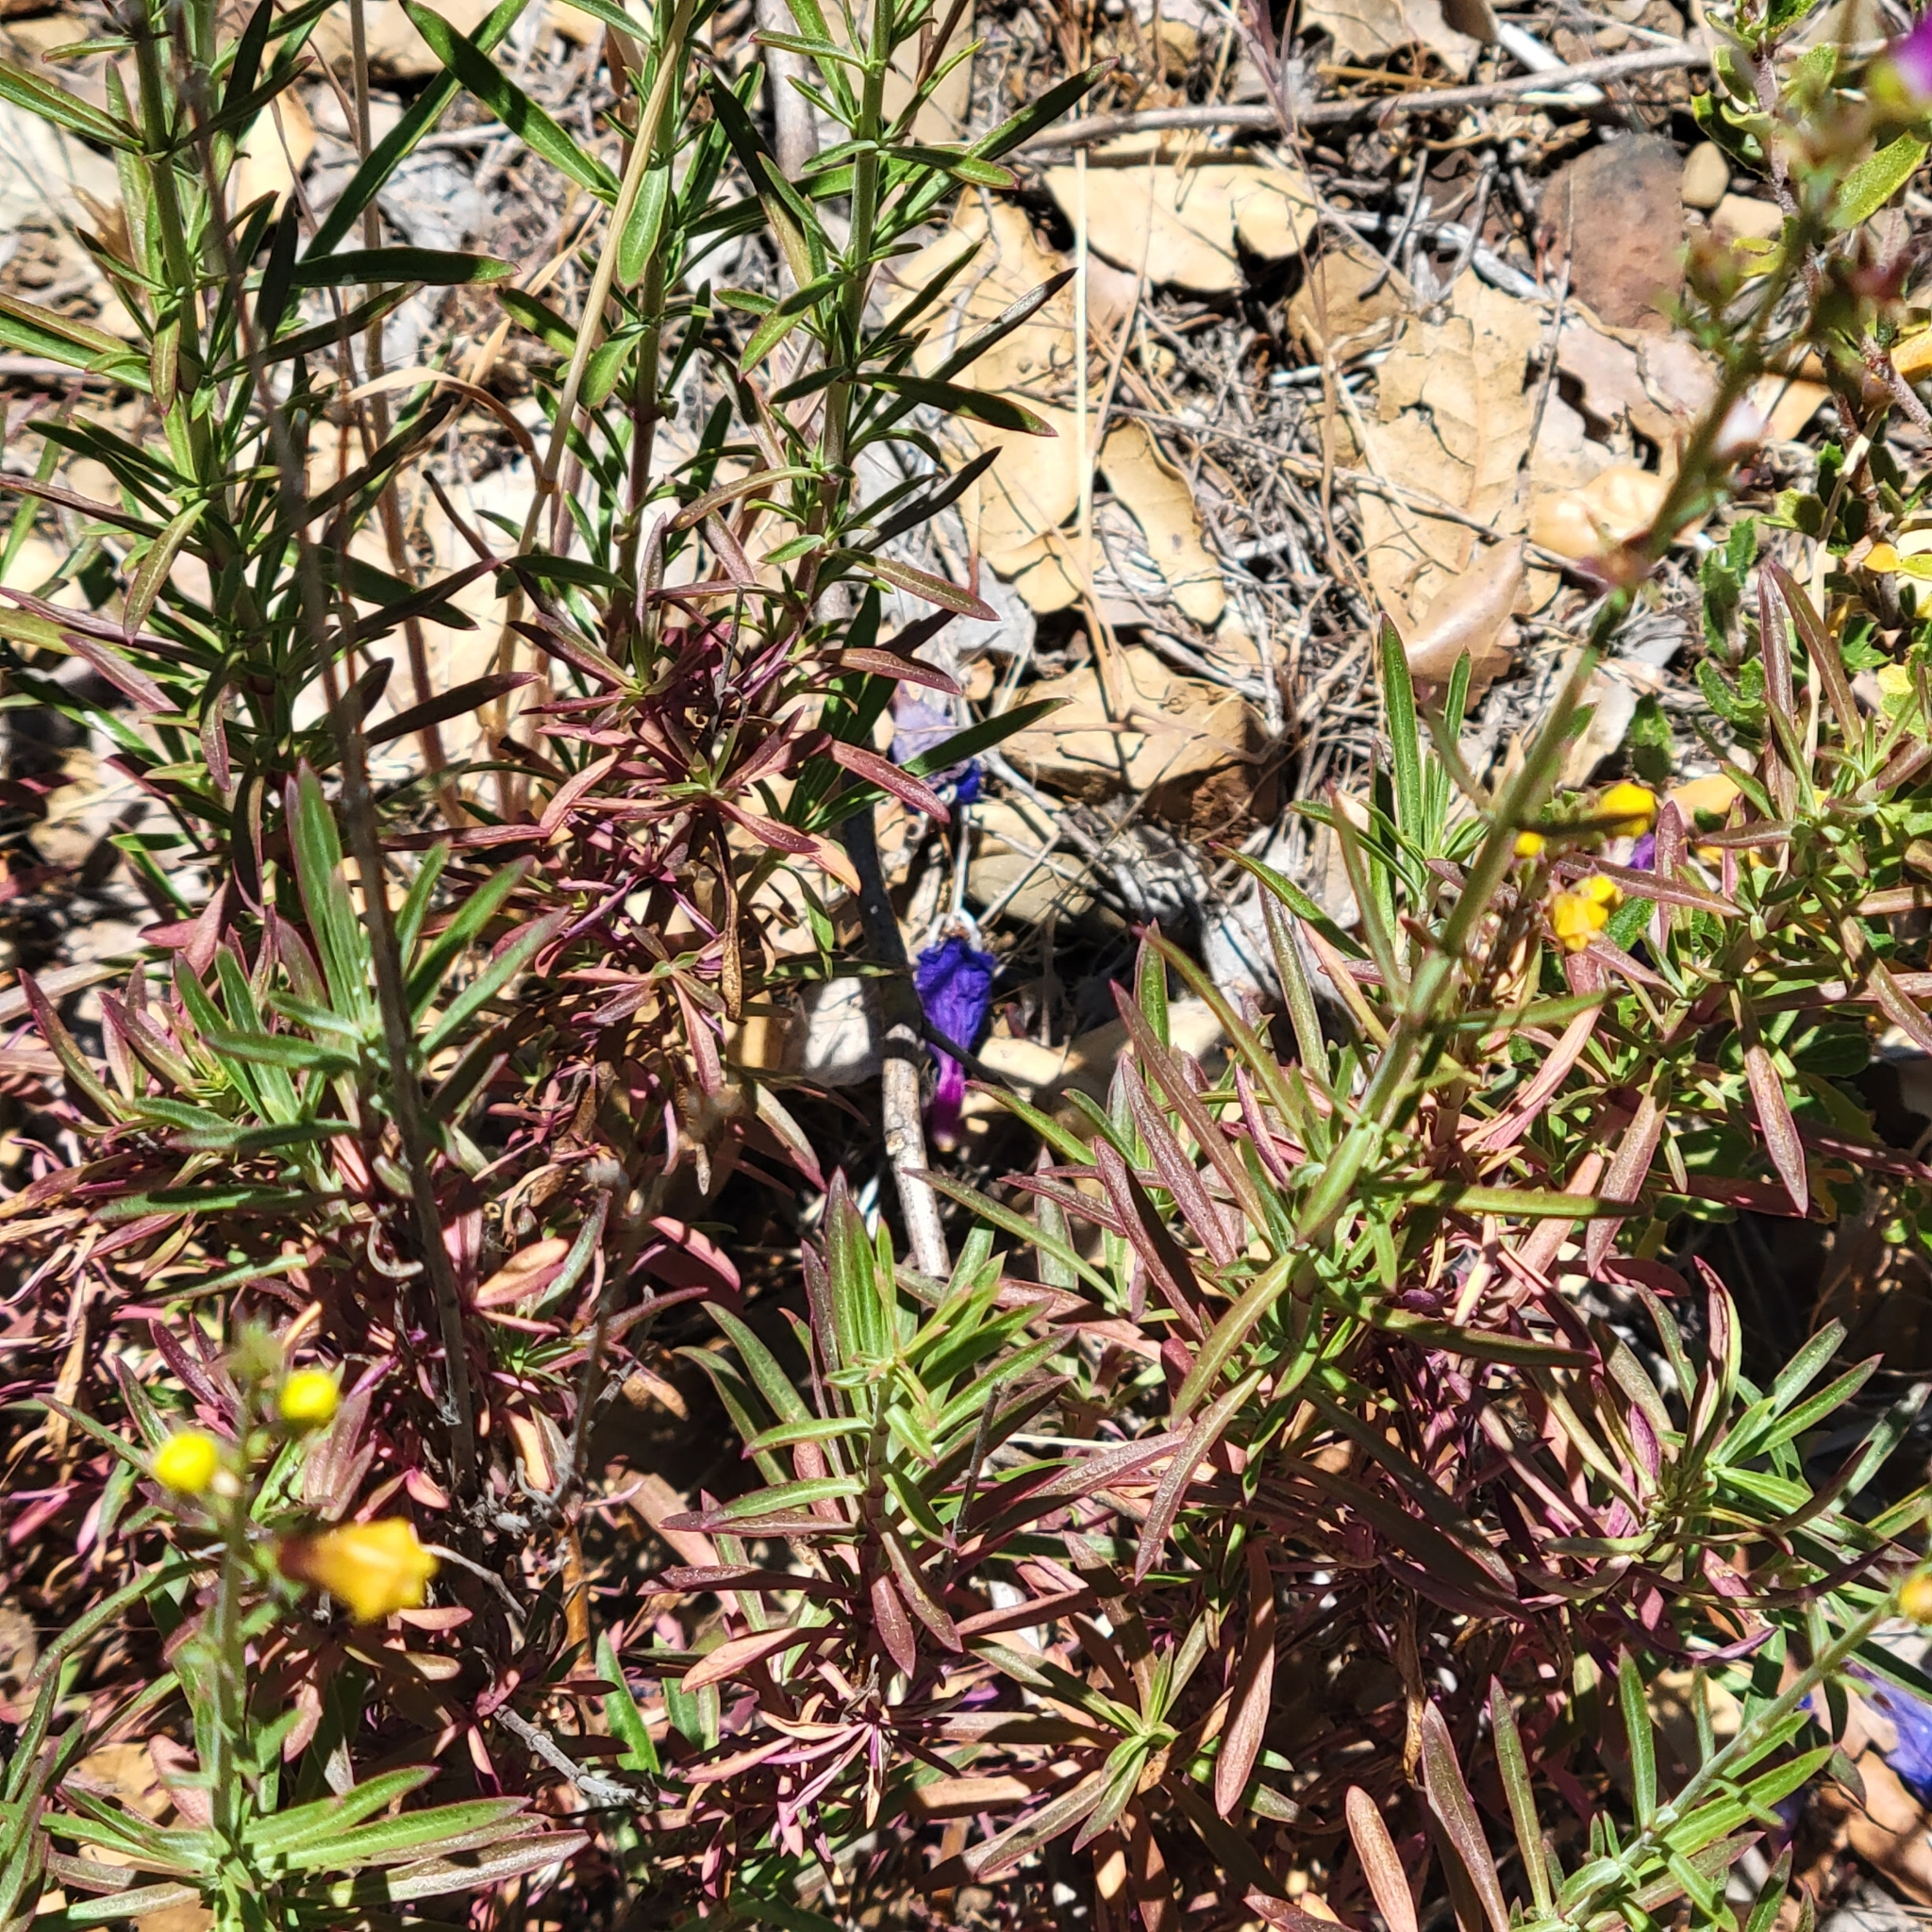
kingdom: Plantae
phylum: Tracheophyta
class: Magnoliopsida
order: Lamiales
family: Plantaginaceae
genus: Penstemon
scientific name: Penstemon heterophyllus
